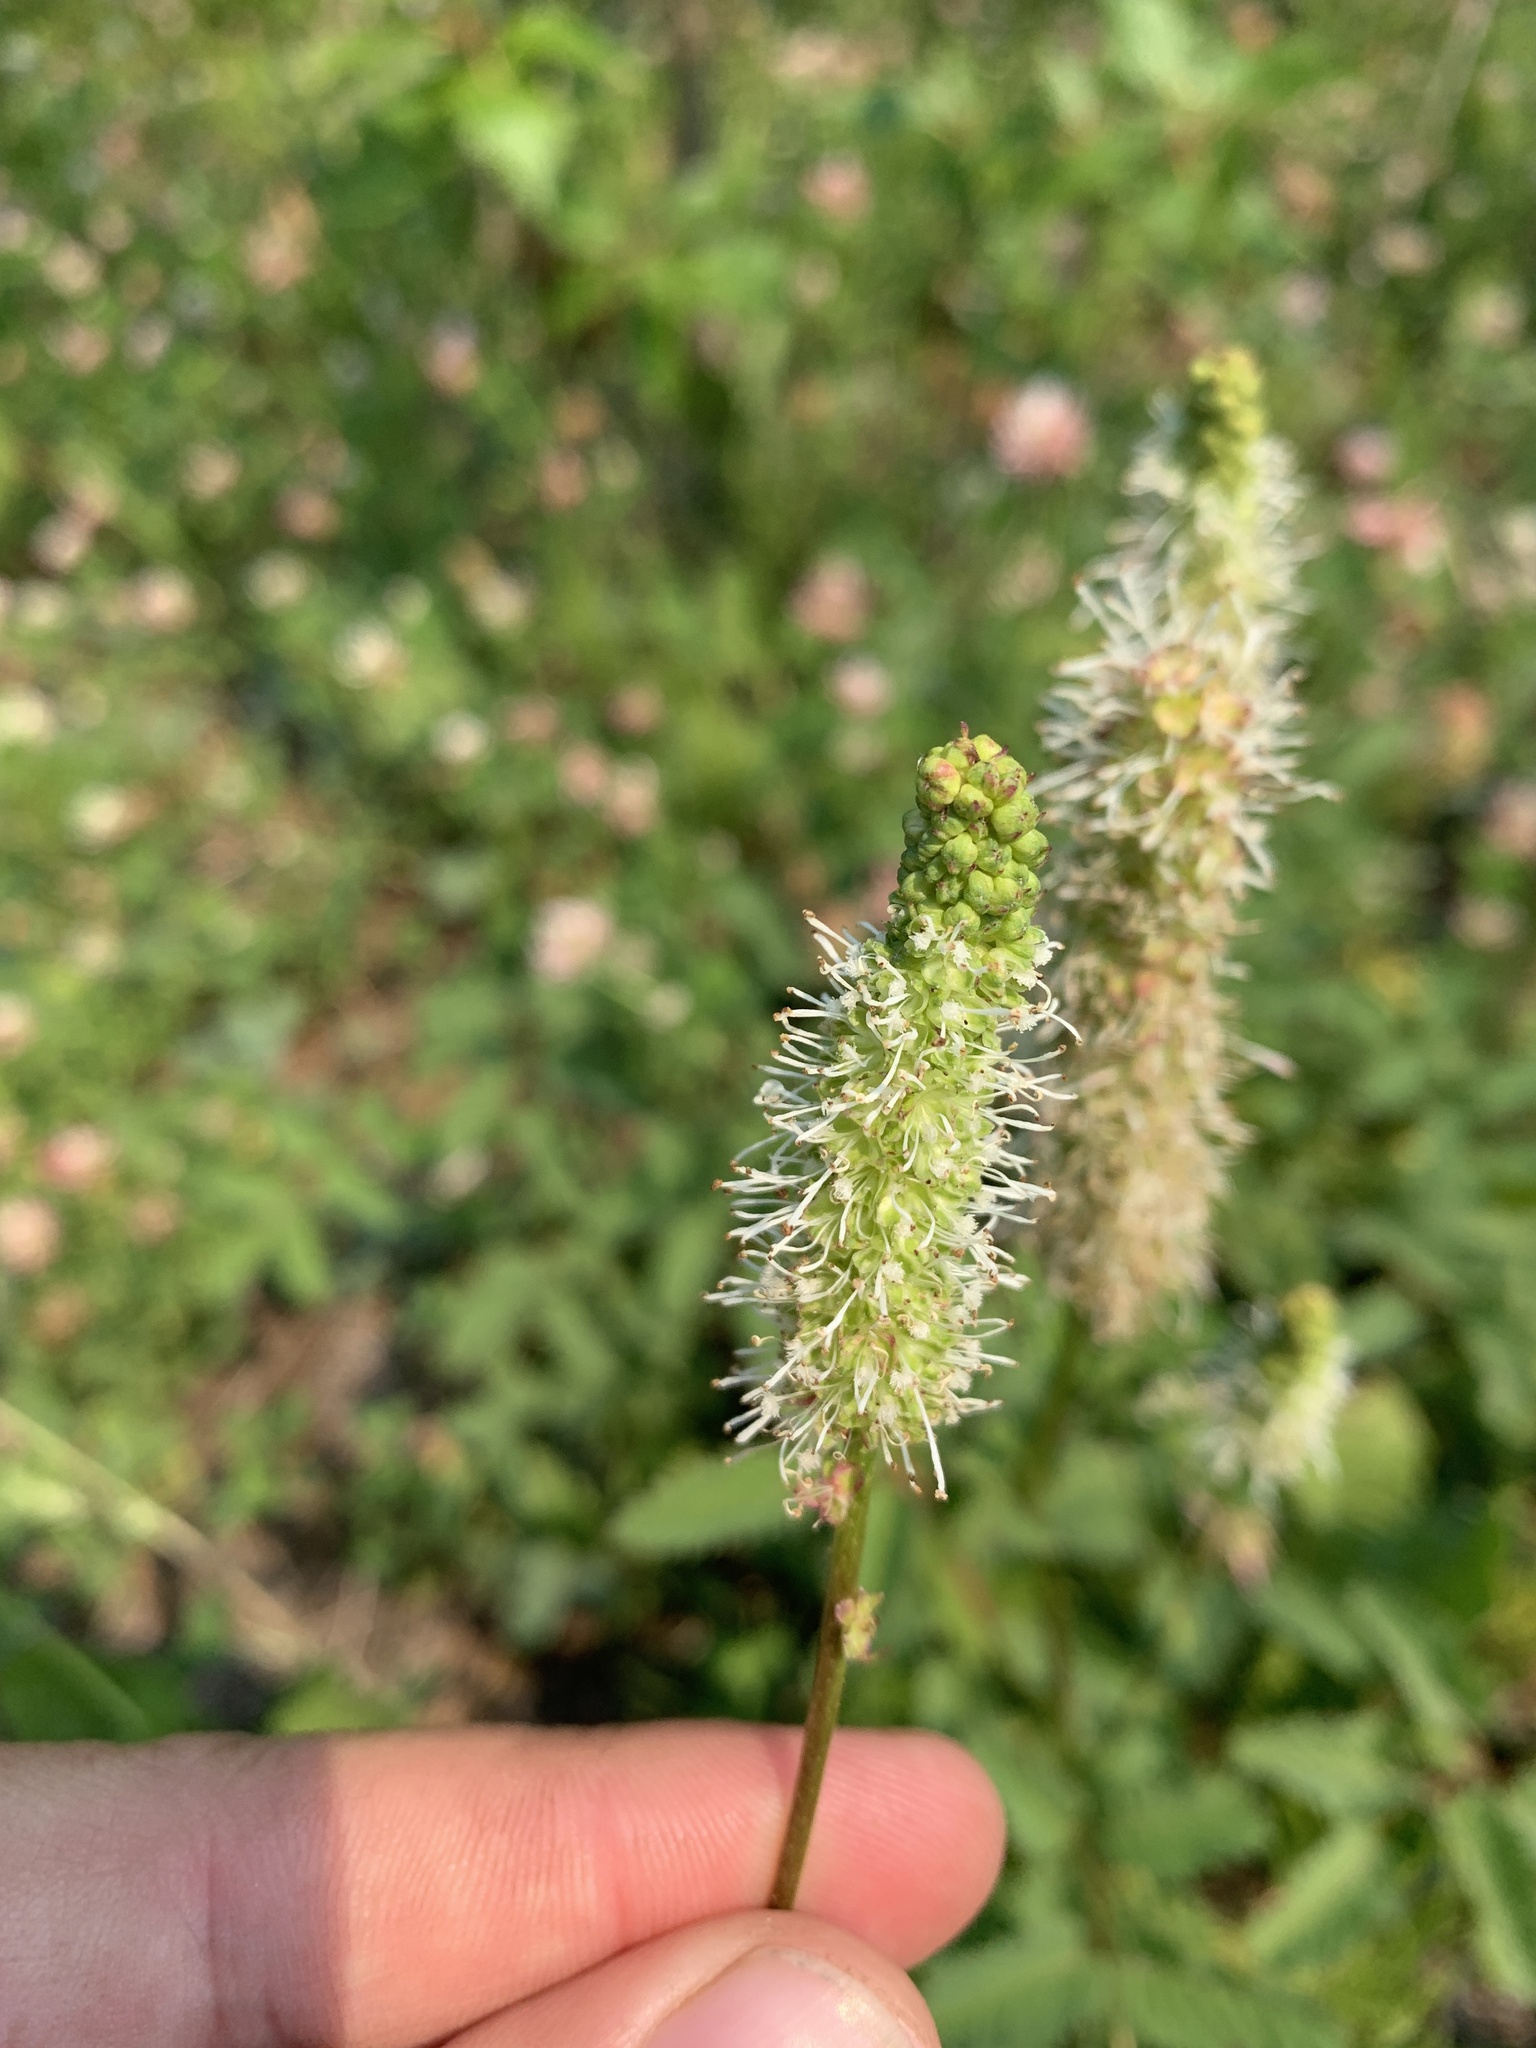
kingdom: Plantae
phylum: Tracheophyta
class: Magnoliopsida
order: Rosales
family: Rosaceae
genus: Sanguisorba
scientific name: Sanguisorba stipulata
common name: Sitka burnet
